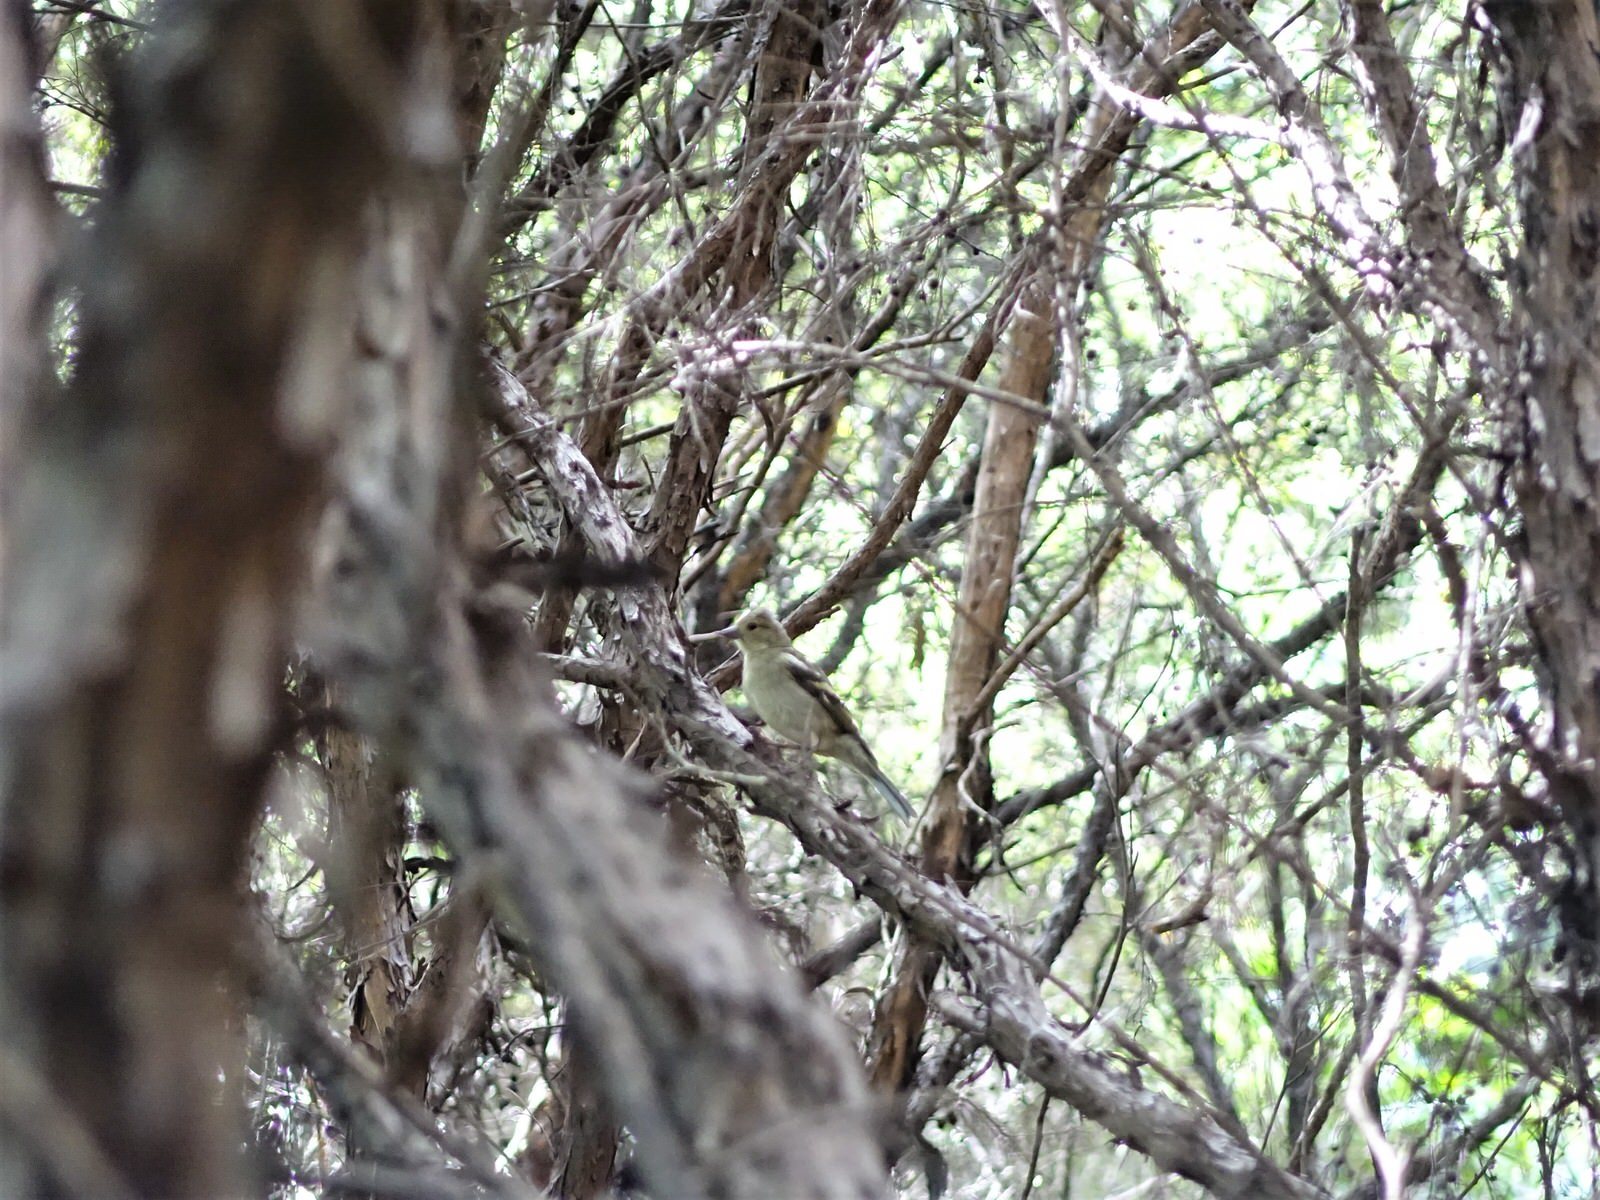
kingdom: Animalia
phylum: Chordata
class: Aves
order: Passeriformes
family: Fringillidae
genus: Fringilla
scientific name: Fringilla coelebs
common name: Common chaffinch
